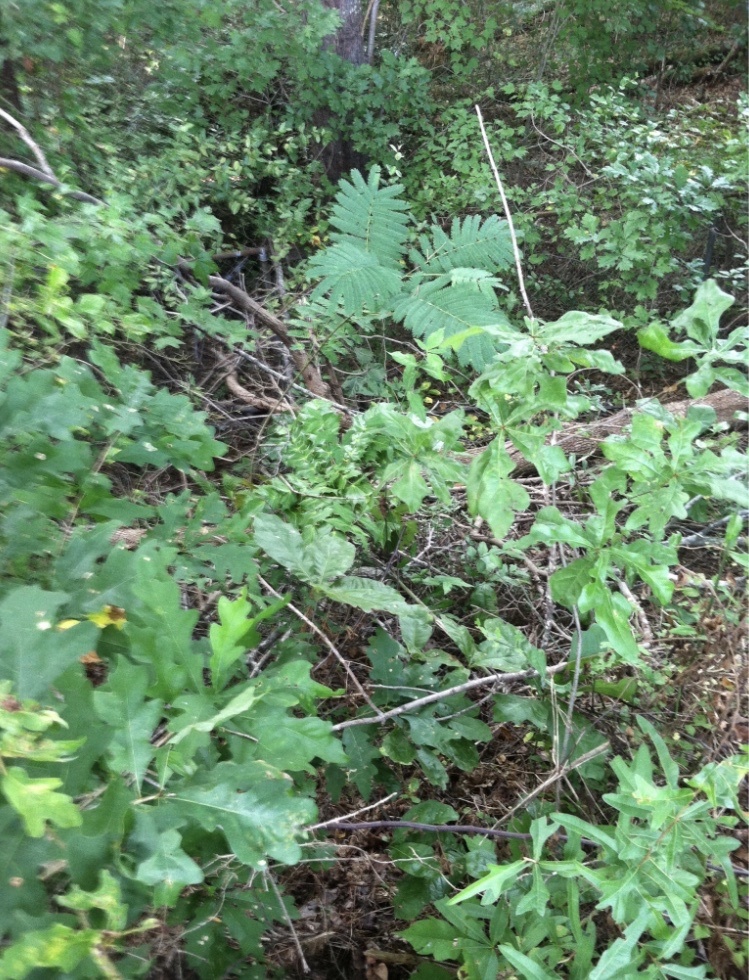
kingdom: Plantae
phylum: Tracheophyta
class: Magnoliopsida
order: Fabales
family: Fabaceae
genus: Albizia
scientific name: Albizia julibrissin
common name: Silktree
